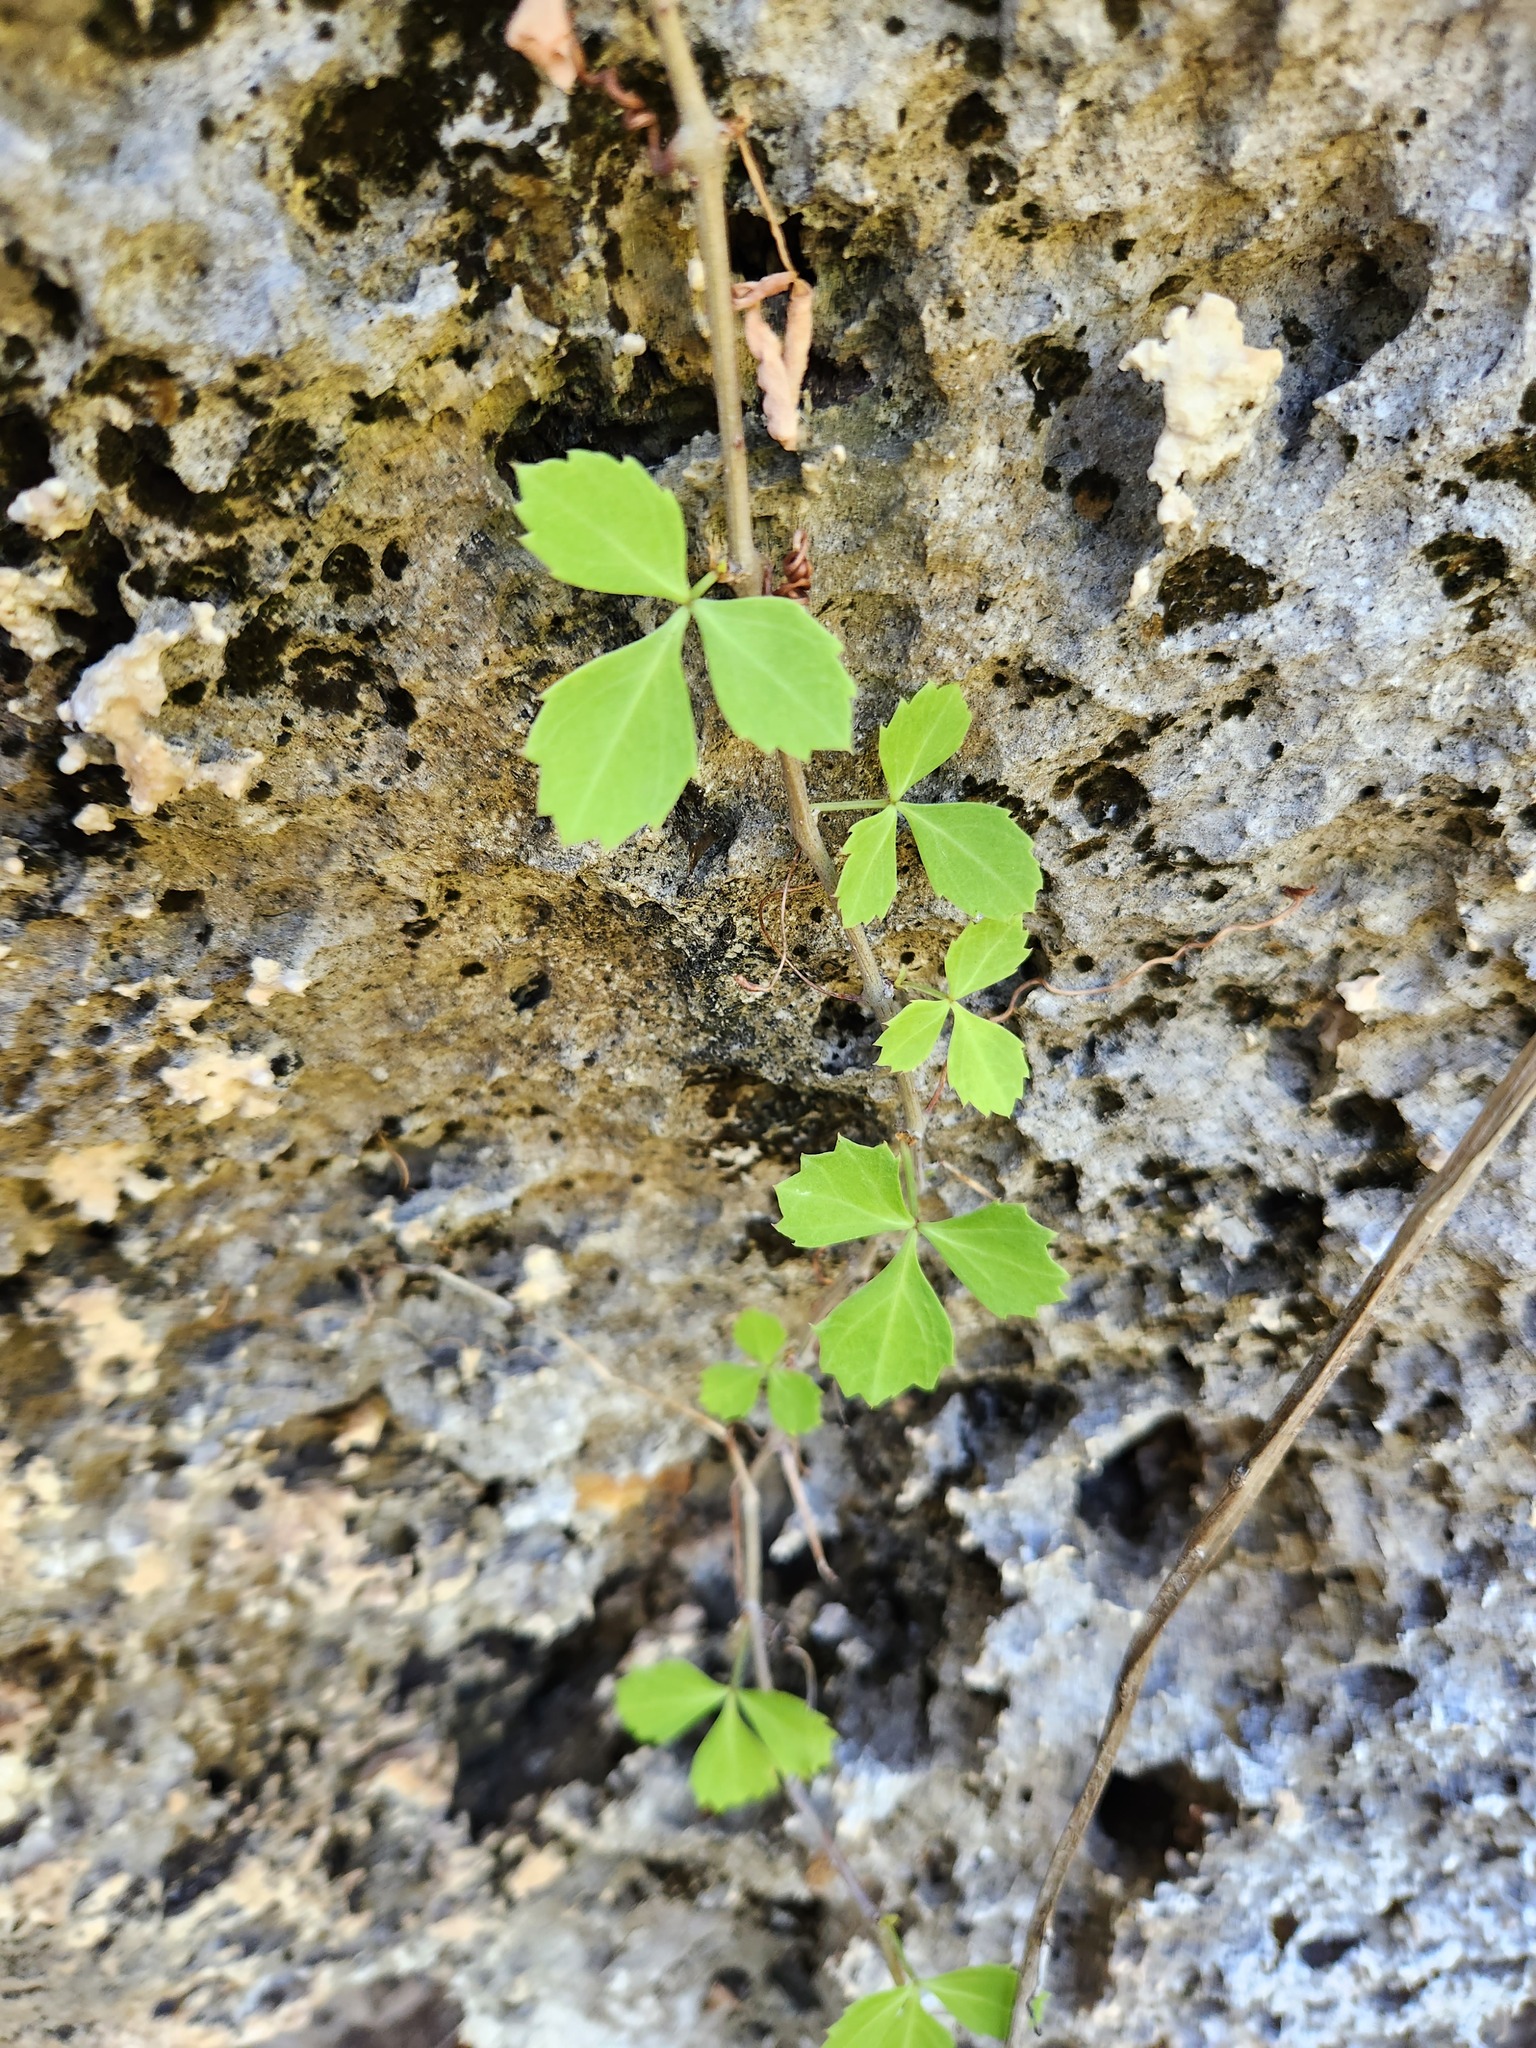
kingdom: Plantae
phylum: Tracheophyta
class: Magnoliopsida
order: Vitales
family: Vitaceae
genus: Cissus
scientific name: Cissus trifoliata
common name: Vine-sorrel
